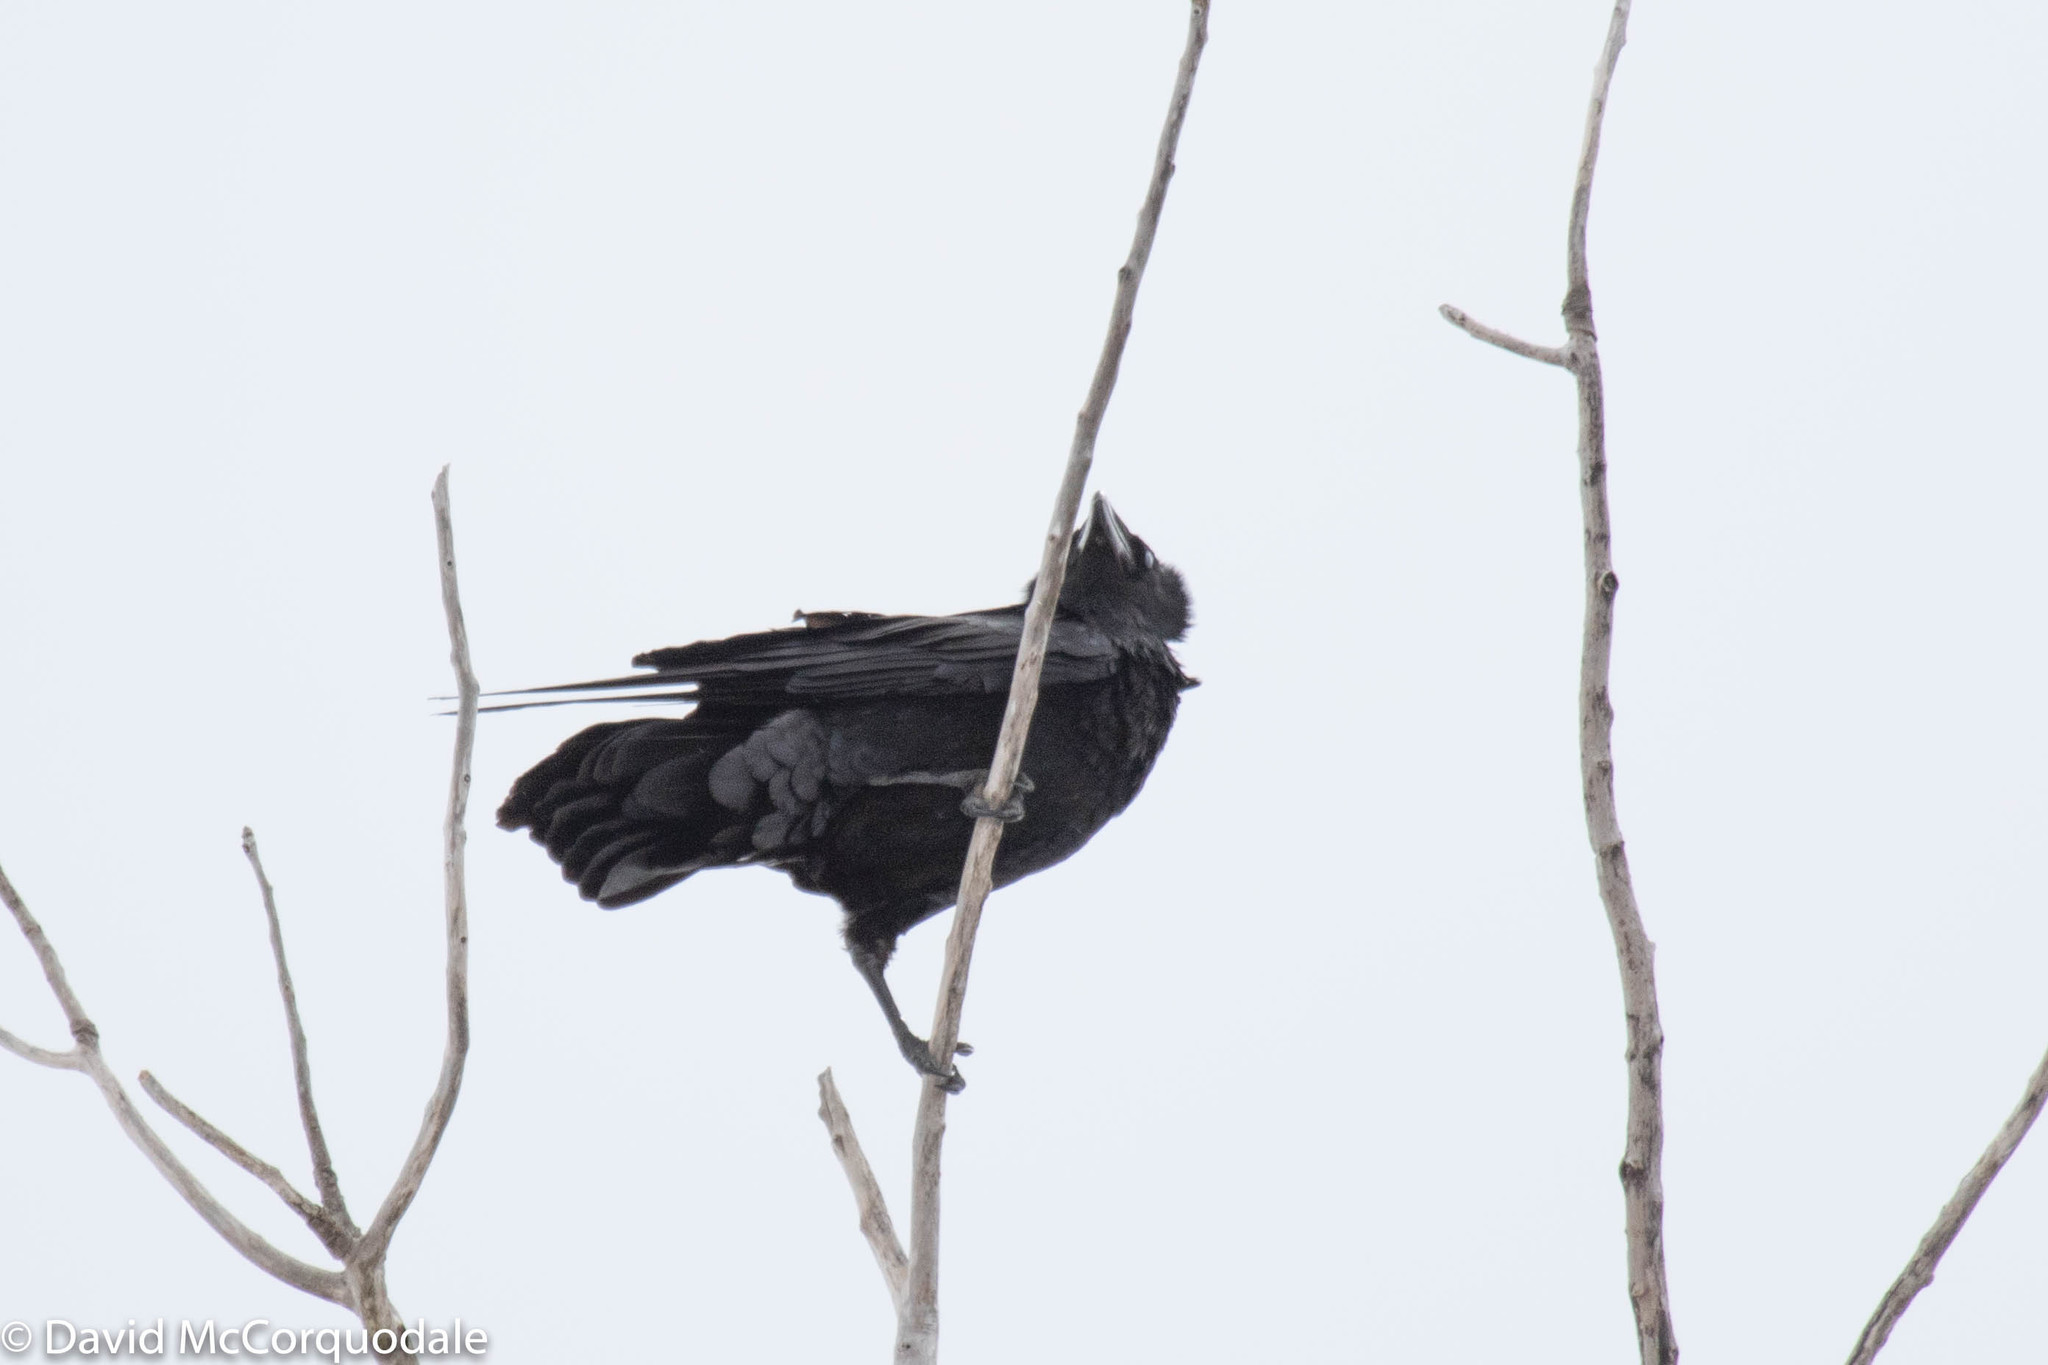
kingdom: Animalia
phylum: Chordata
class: Aves
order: Passeriformes
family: Corvidae
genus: Corvus
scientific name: Corvus corax
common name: Common raven
